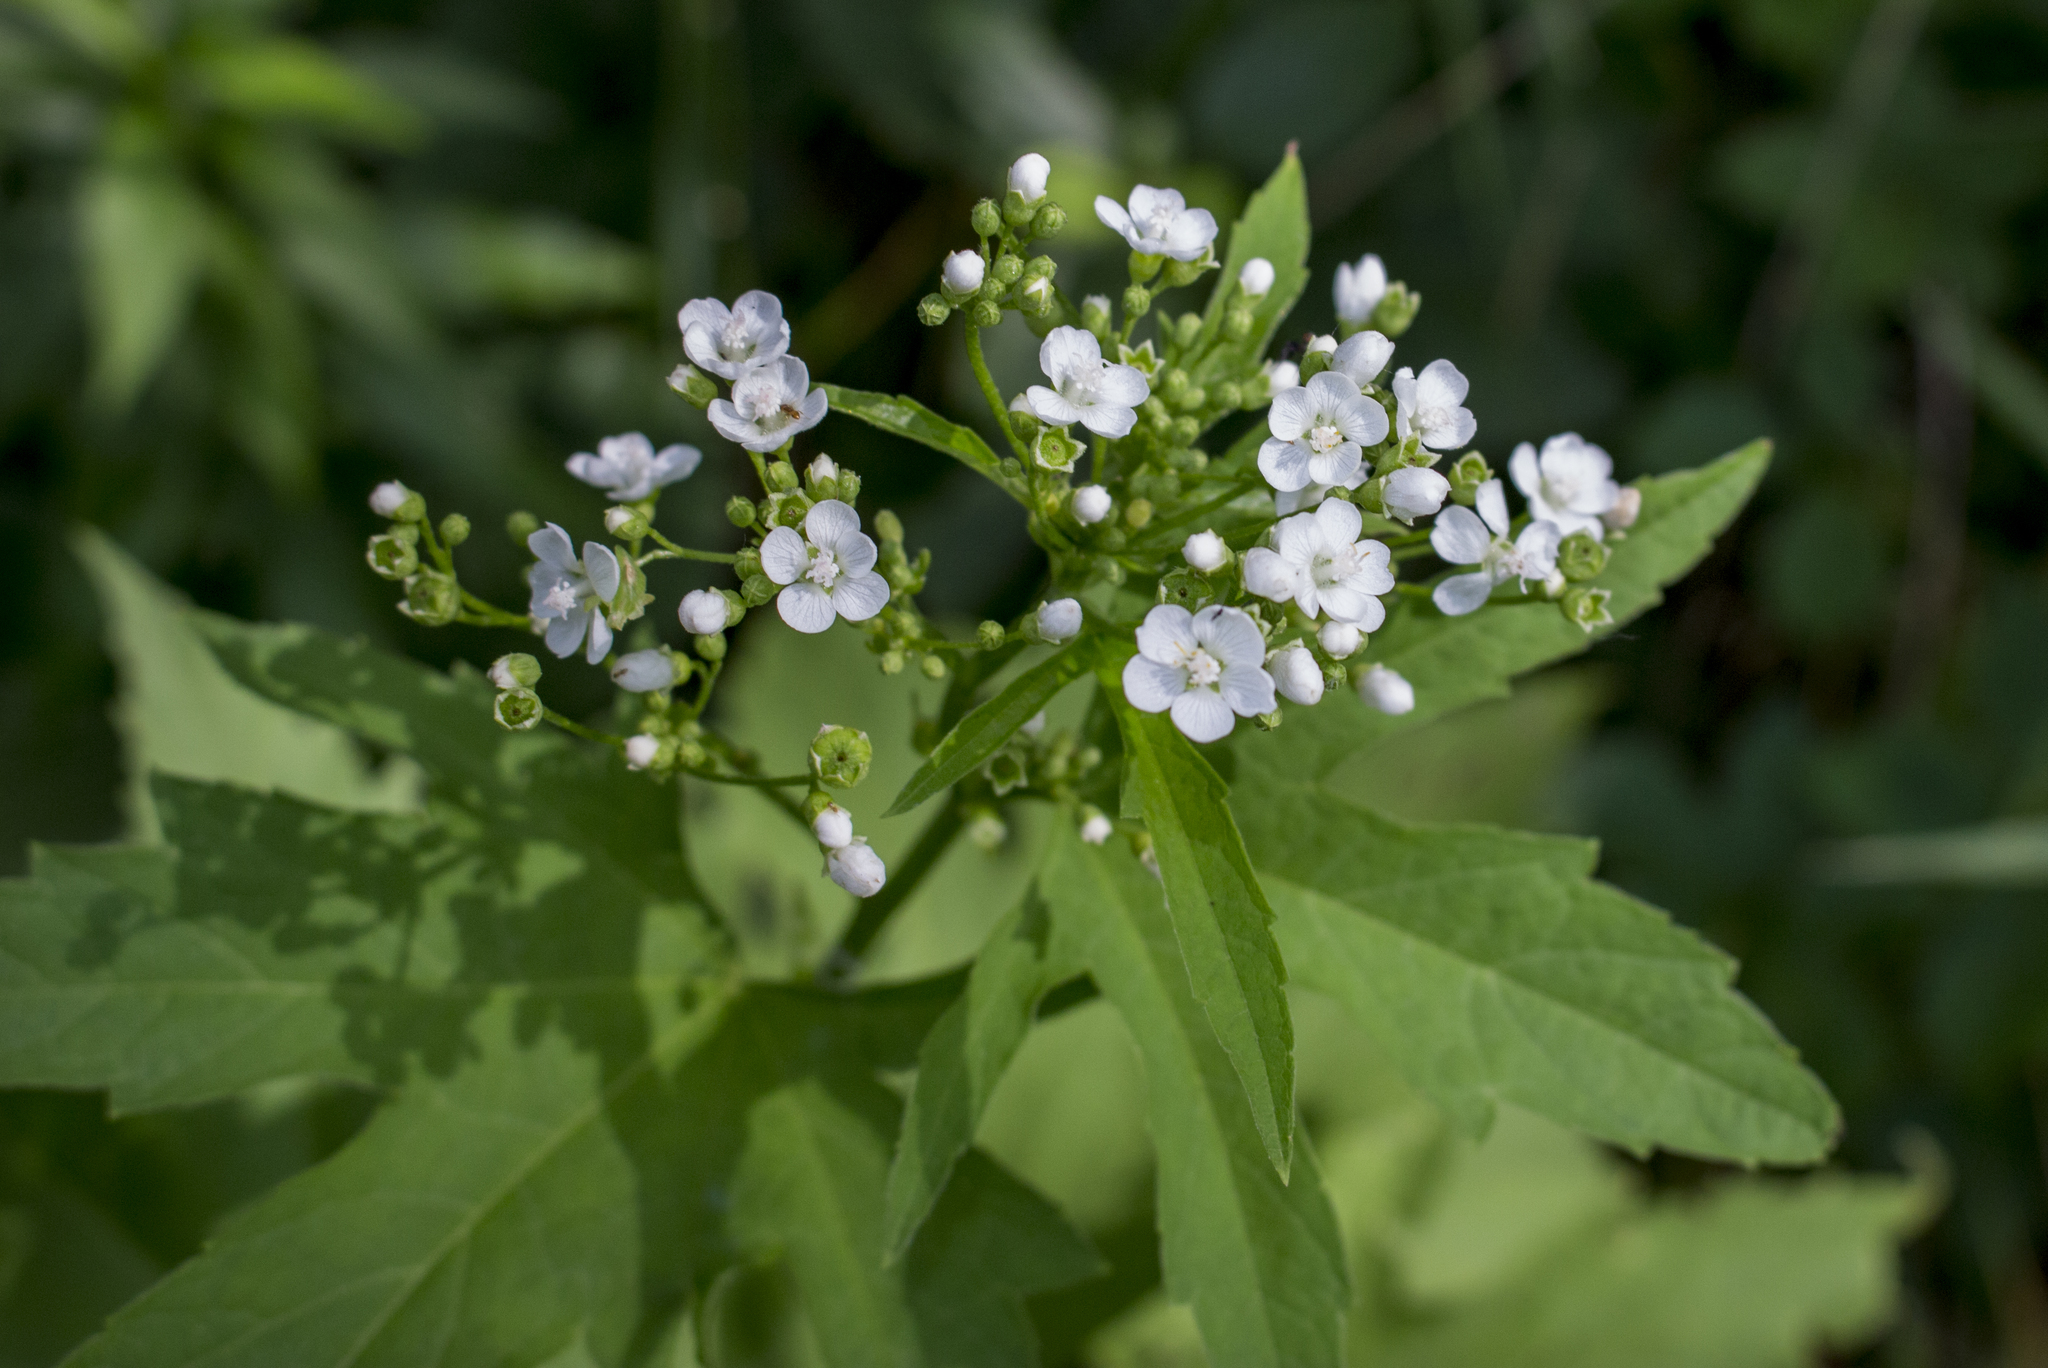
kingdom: Plantae
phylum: Tracheophyta
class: Magnoliopsida
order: Malvales
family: Malvaceae
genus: Napaea
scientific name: Napaea dioica
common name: Glade-mallow
